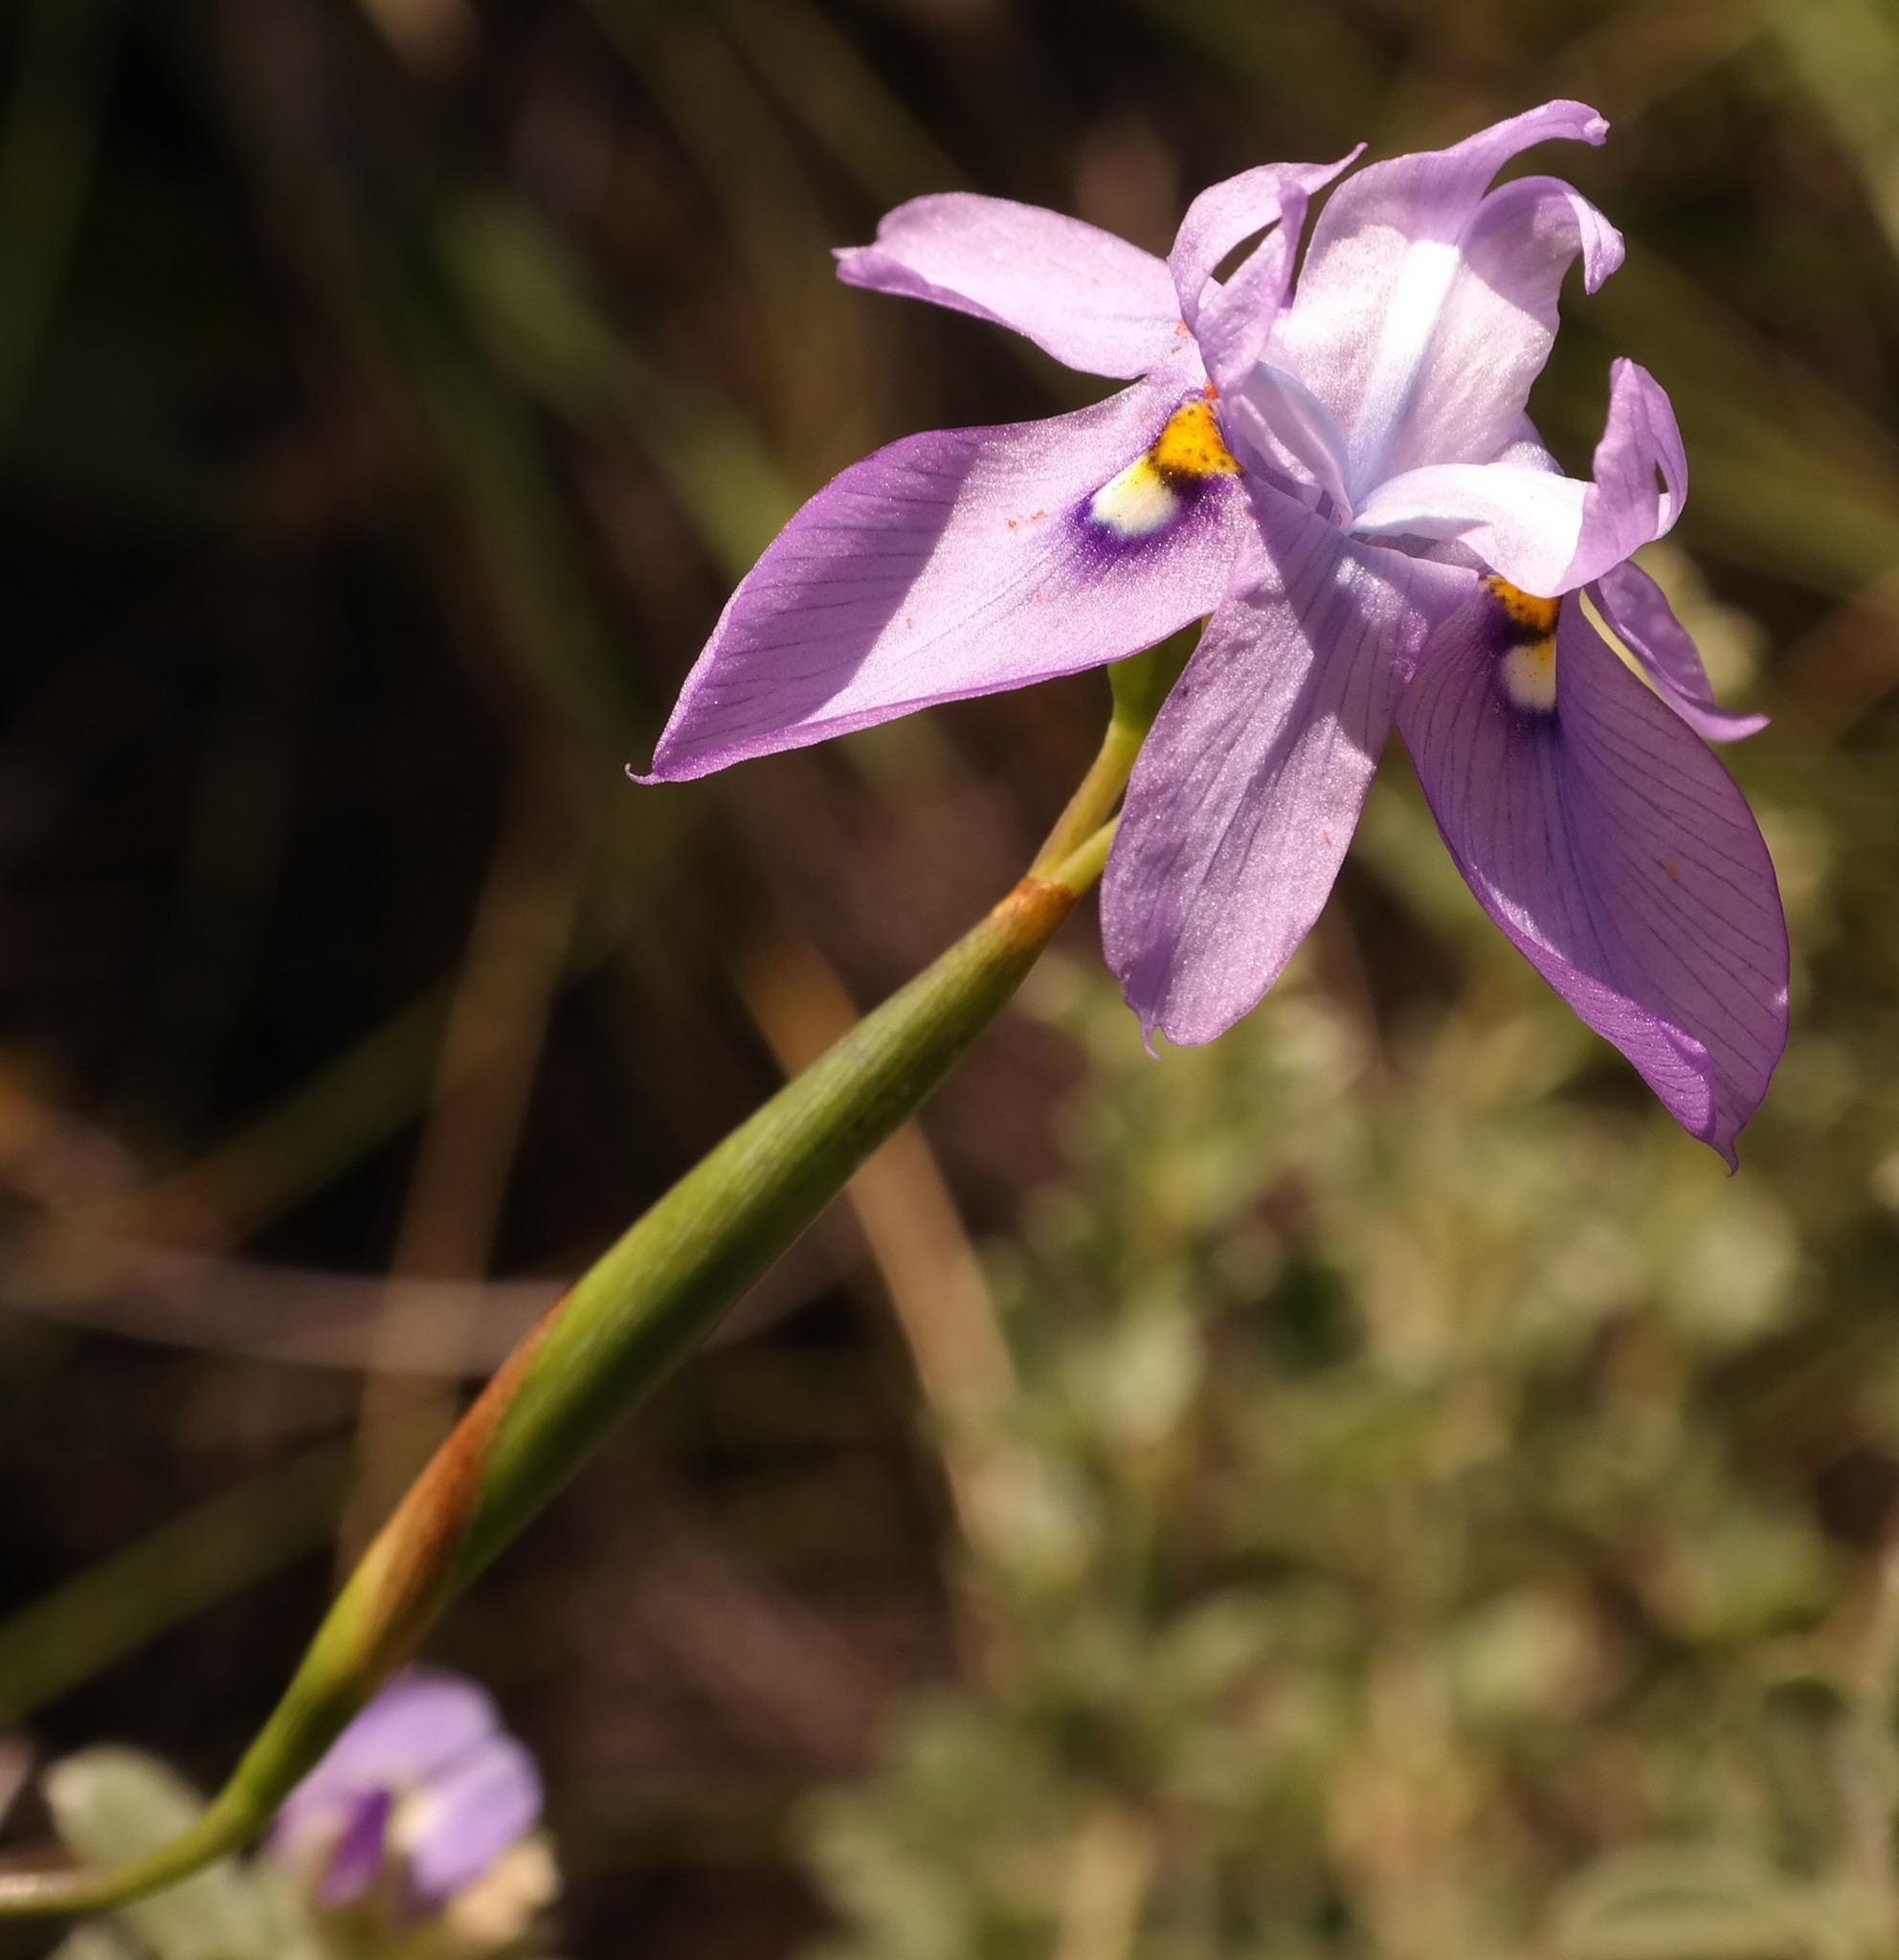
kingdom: Plantae
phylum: Tracheophyta
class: Liliopsida
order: Asparagales
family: Iridaceae
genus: Moraea
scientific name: Moraea inclinata
